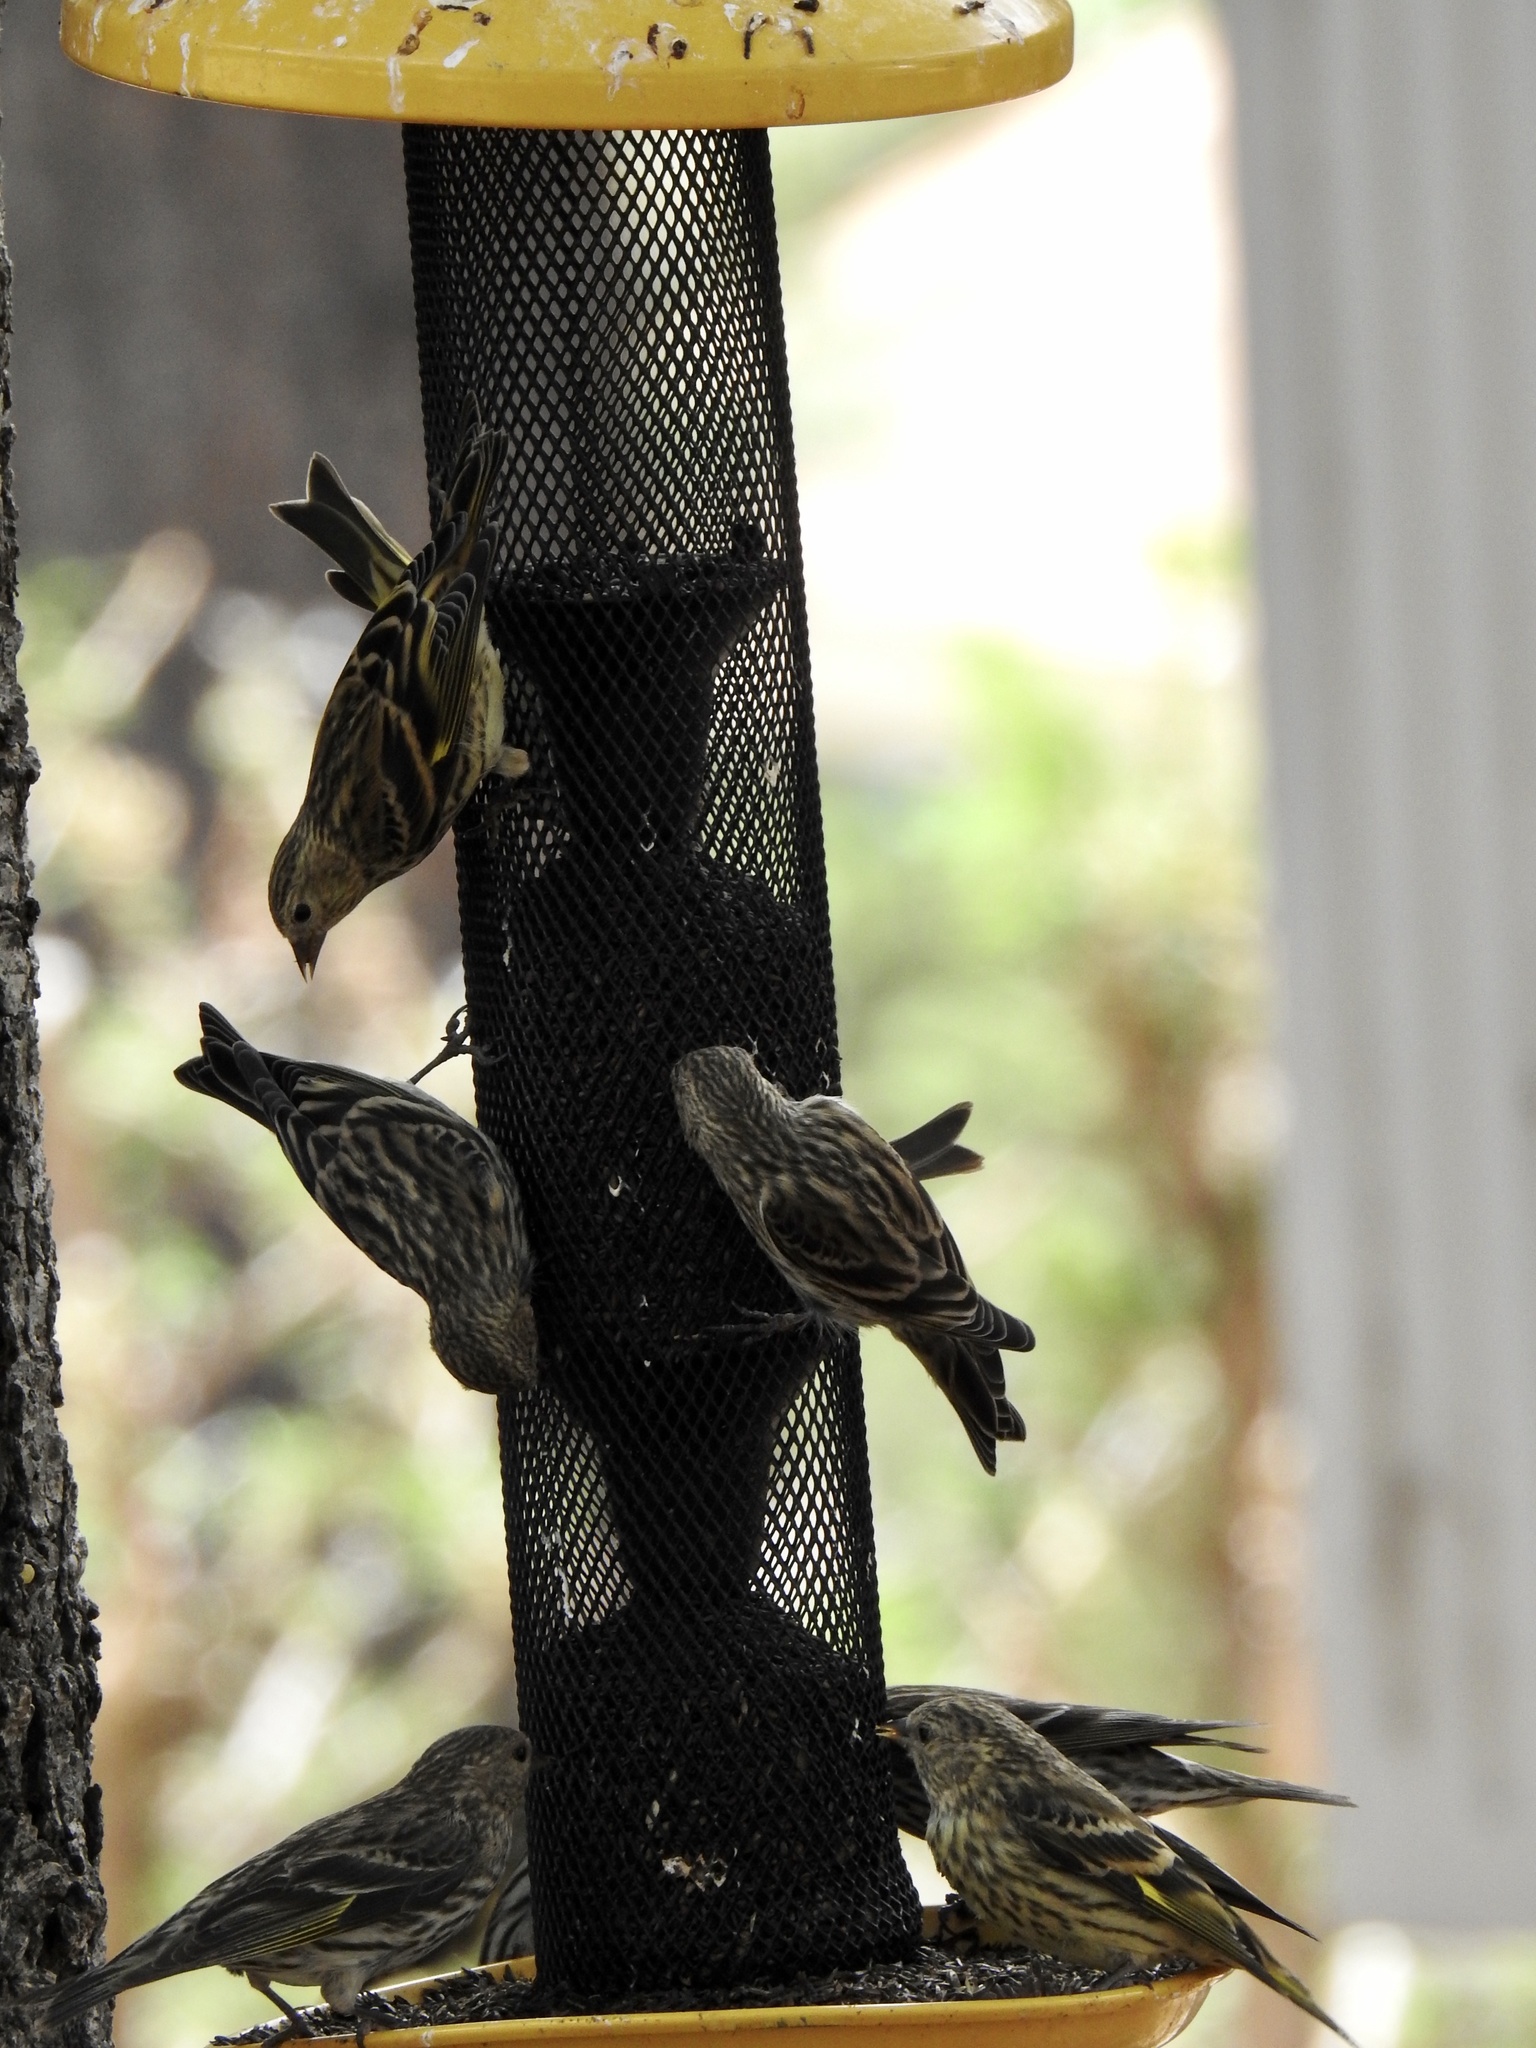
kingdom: Animalia
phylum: Chordata
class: Aves
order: Passeriformes
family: Fringillidae
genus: Spinus
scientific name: Spinus pinus
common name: Pine siskin
